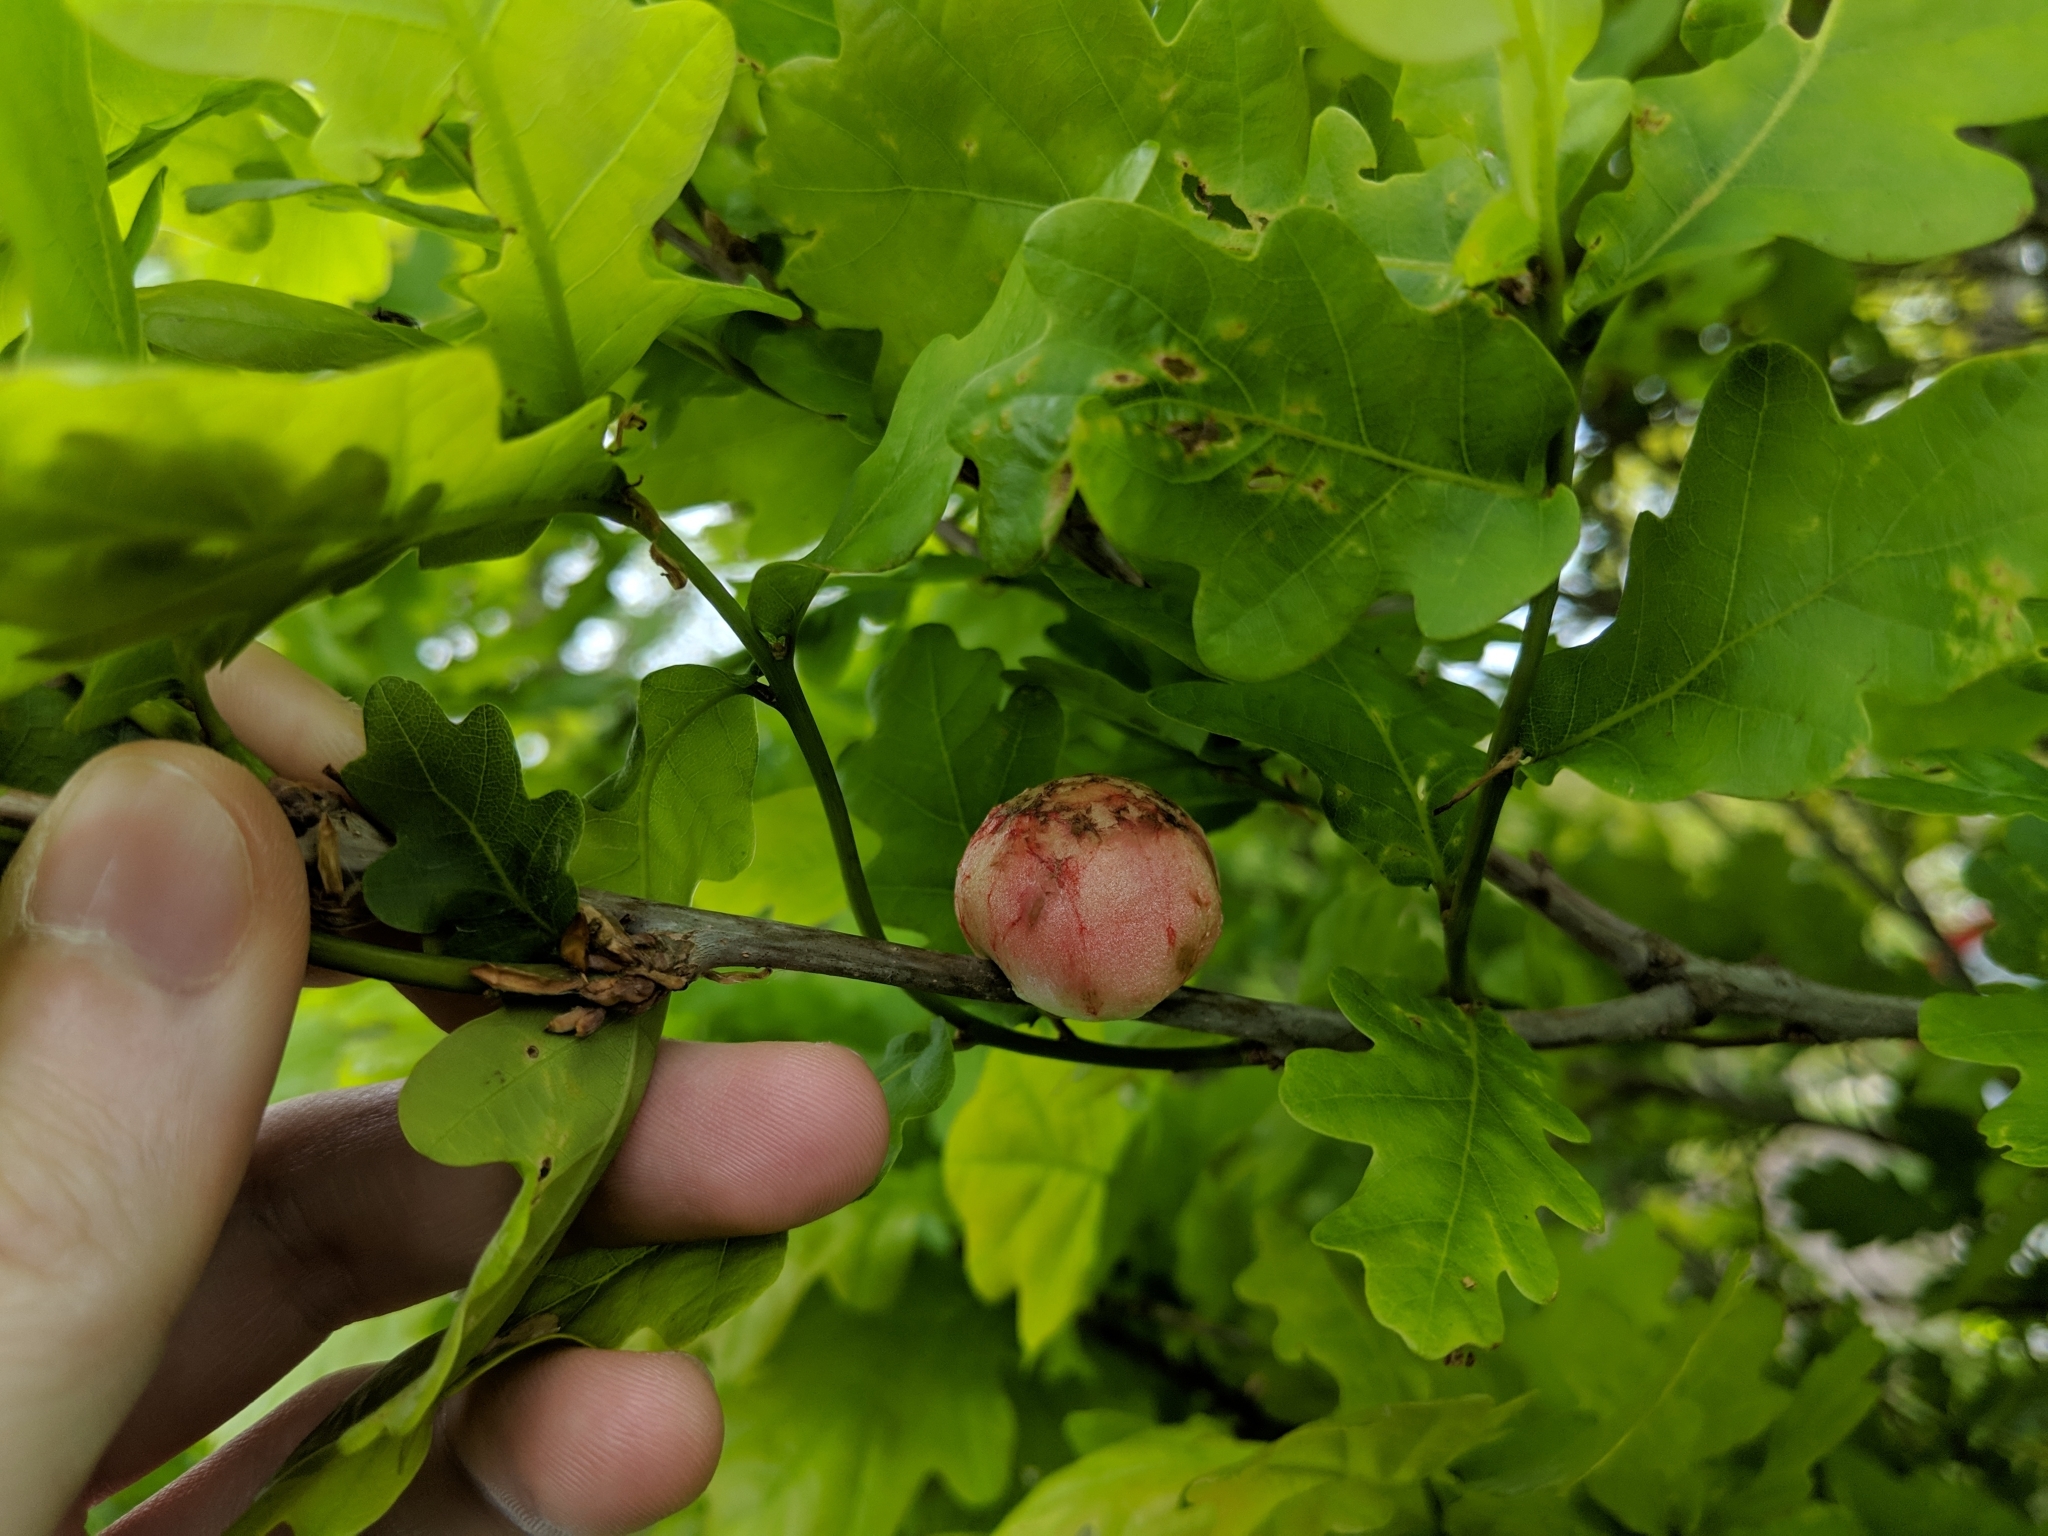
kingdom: Animalia
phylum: Arthropoda
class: Insecta
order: Hymenoptera
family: Cynipidae
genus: Biorhiza
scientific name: Biorhiza pallida
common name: Oak apple
